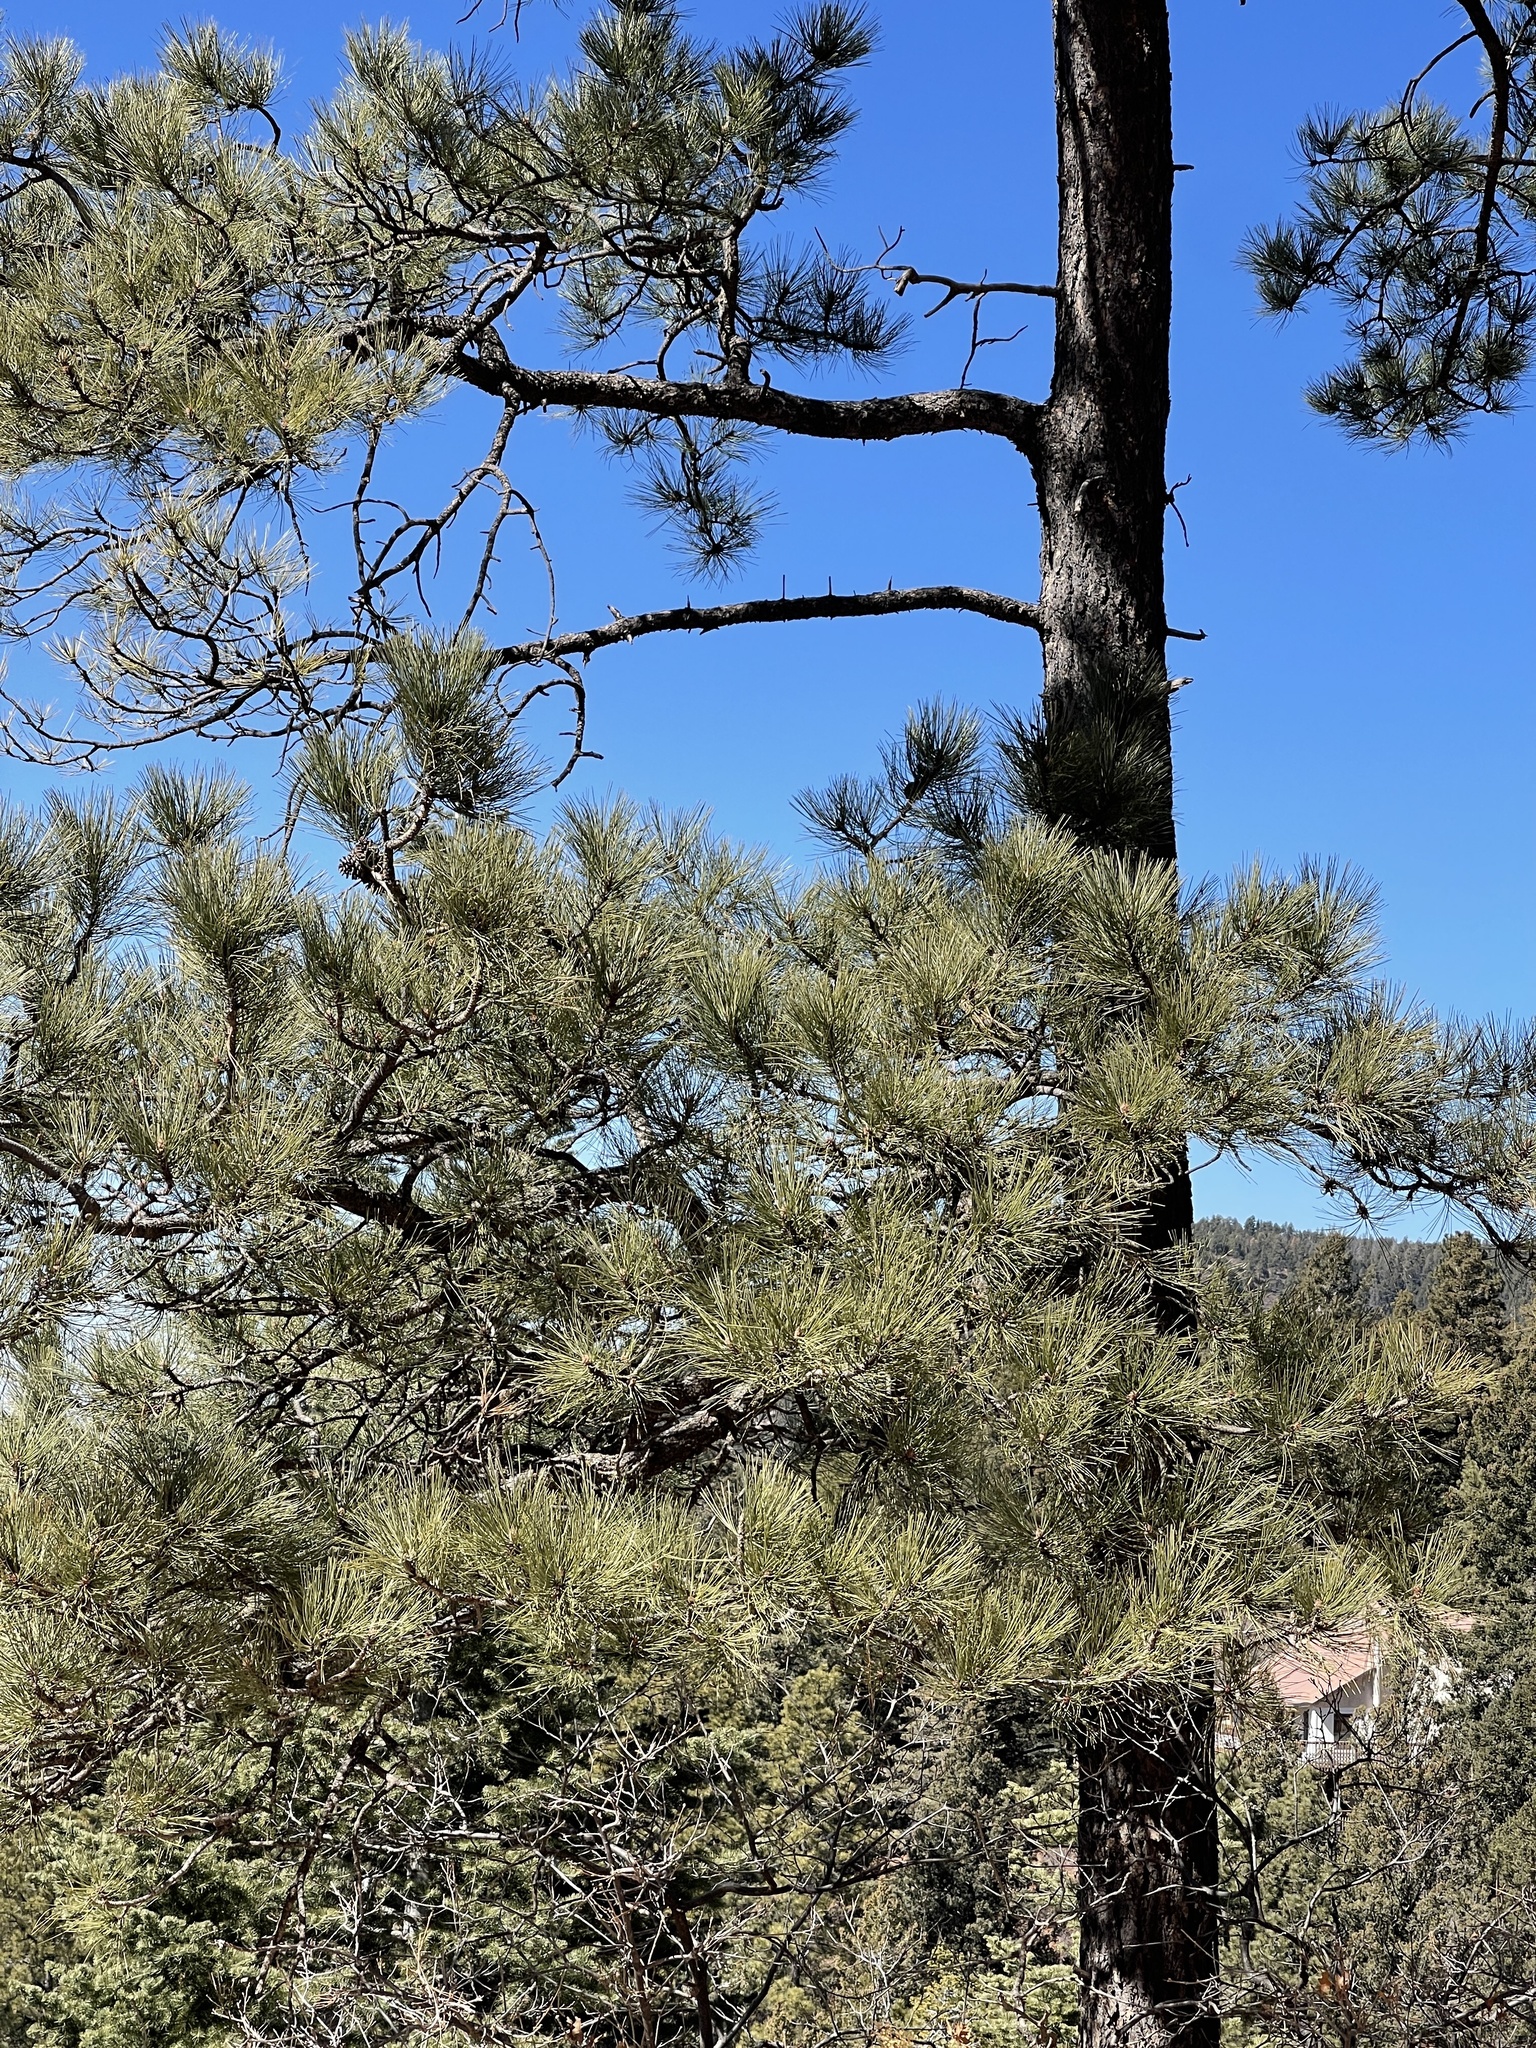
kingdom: Plantae
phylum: Tracheophyta
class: Pinopsida
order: Pinales
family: Pinaceae
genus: Pinus
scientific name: Pinus ponderosa
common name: Western yellow-pine
